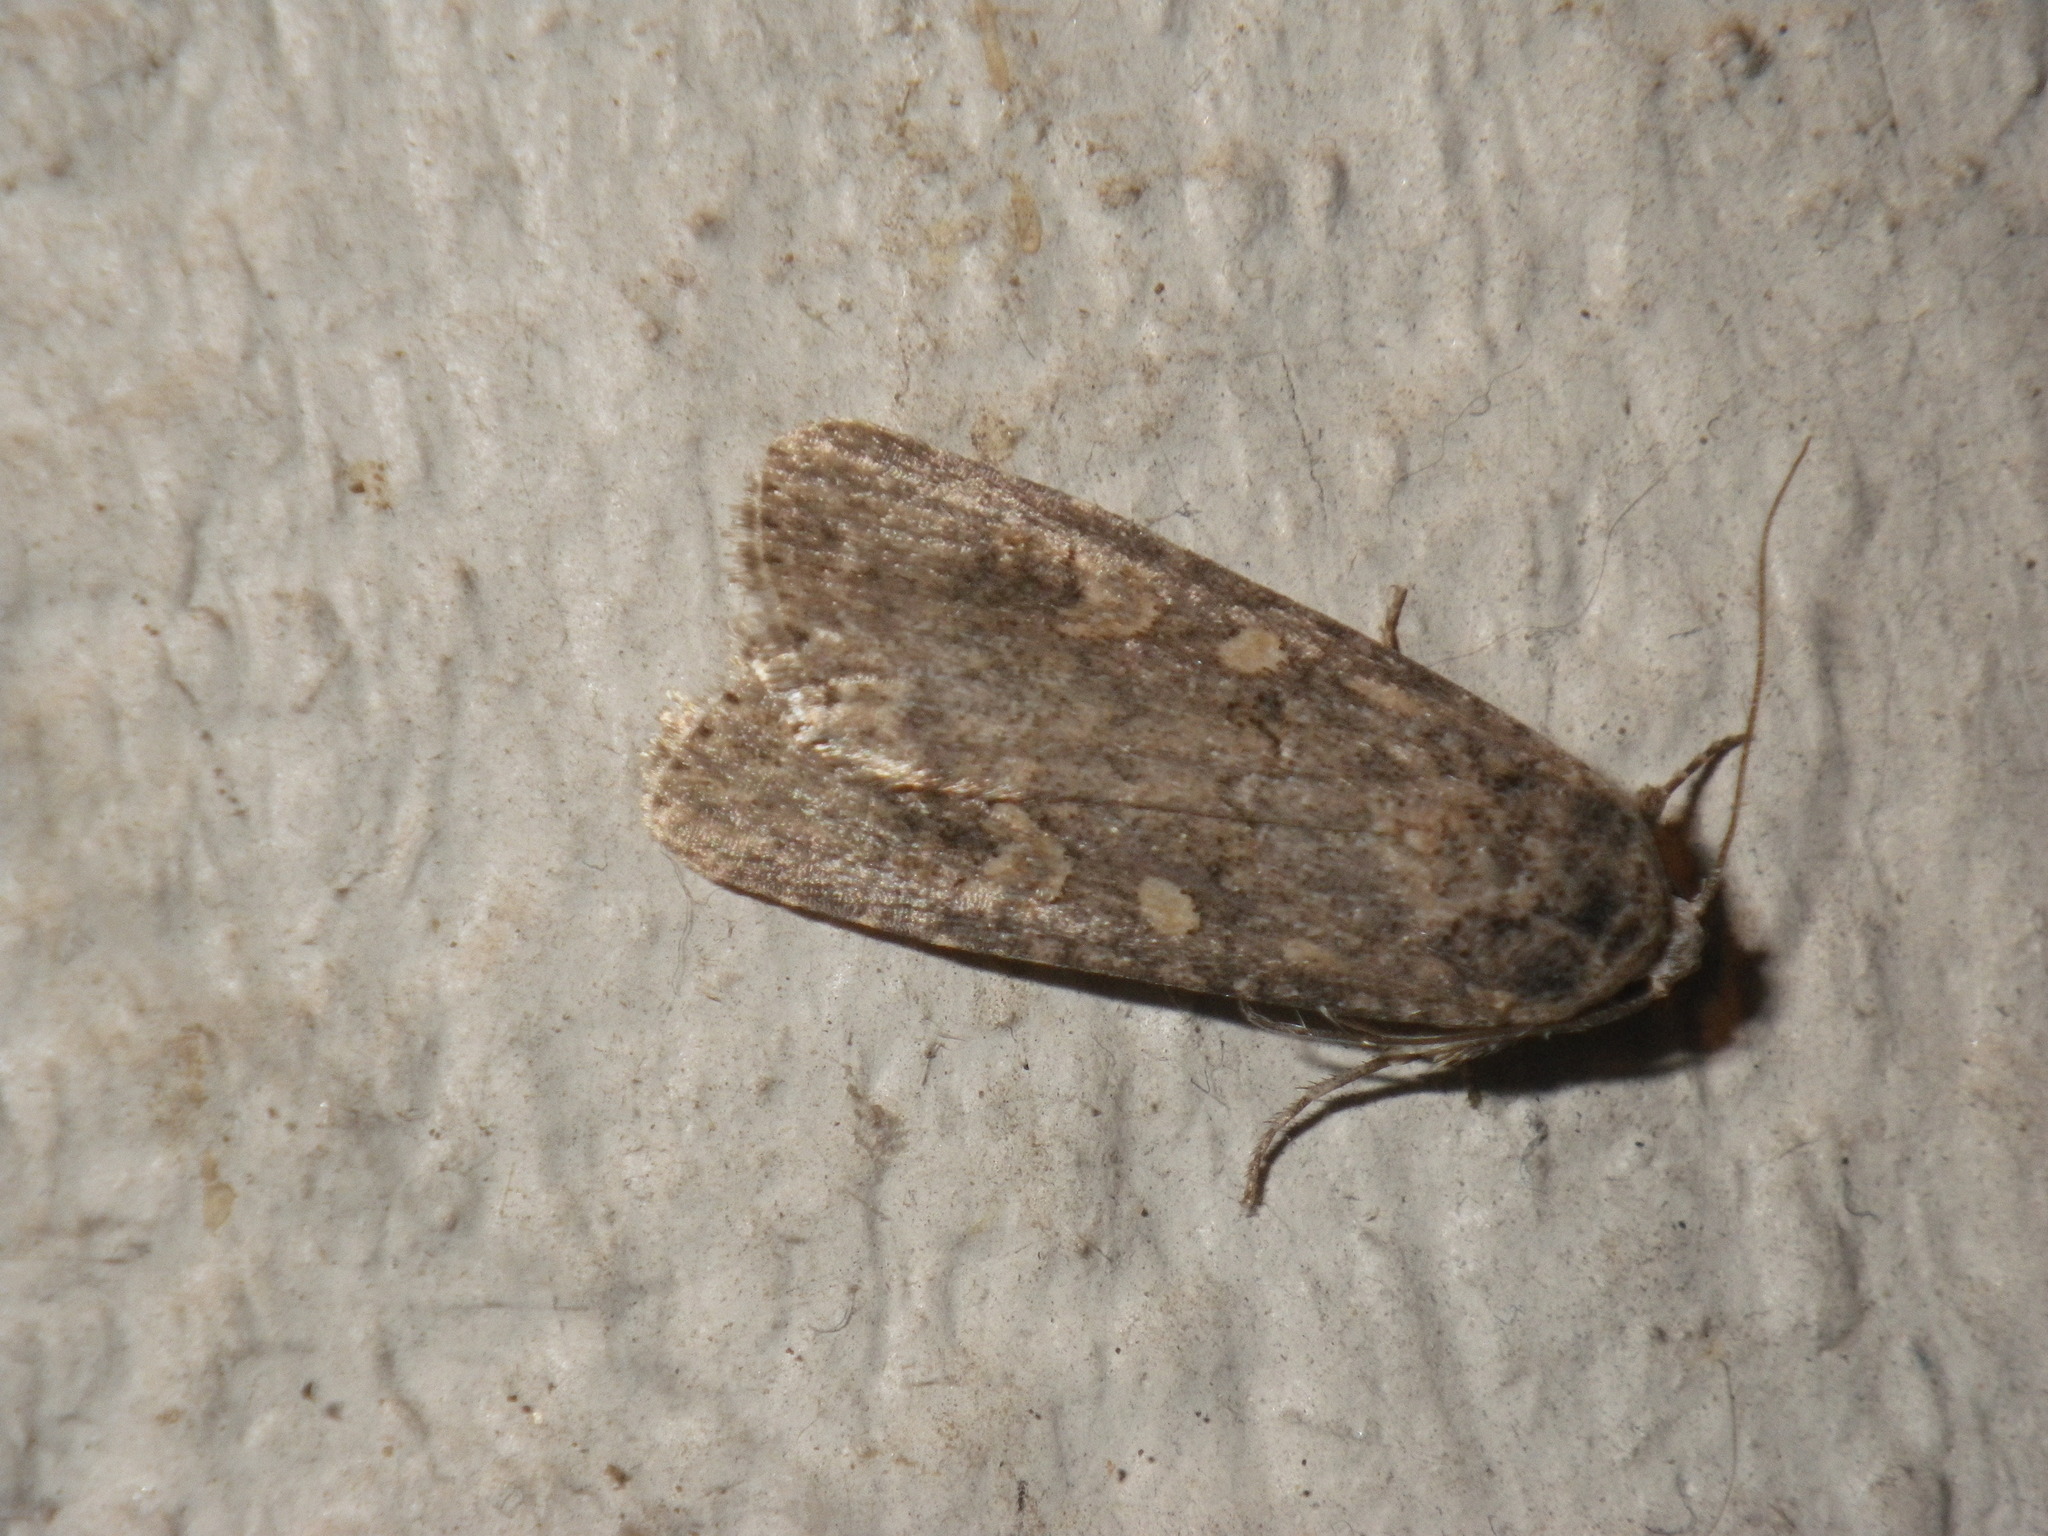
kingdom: Animalia
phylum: Arthropoda
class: Insecta
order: Lepidoptera
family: Noctuidae
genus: Spodoptera
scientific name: Spodoptera exigua
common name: Beet armyworm
